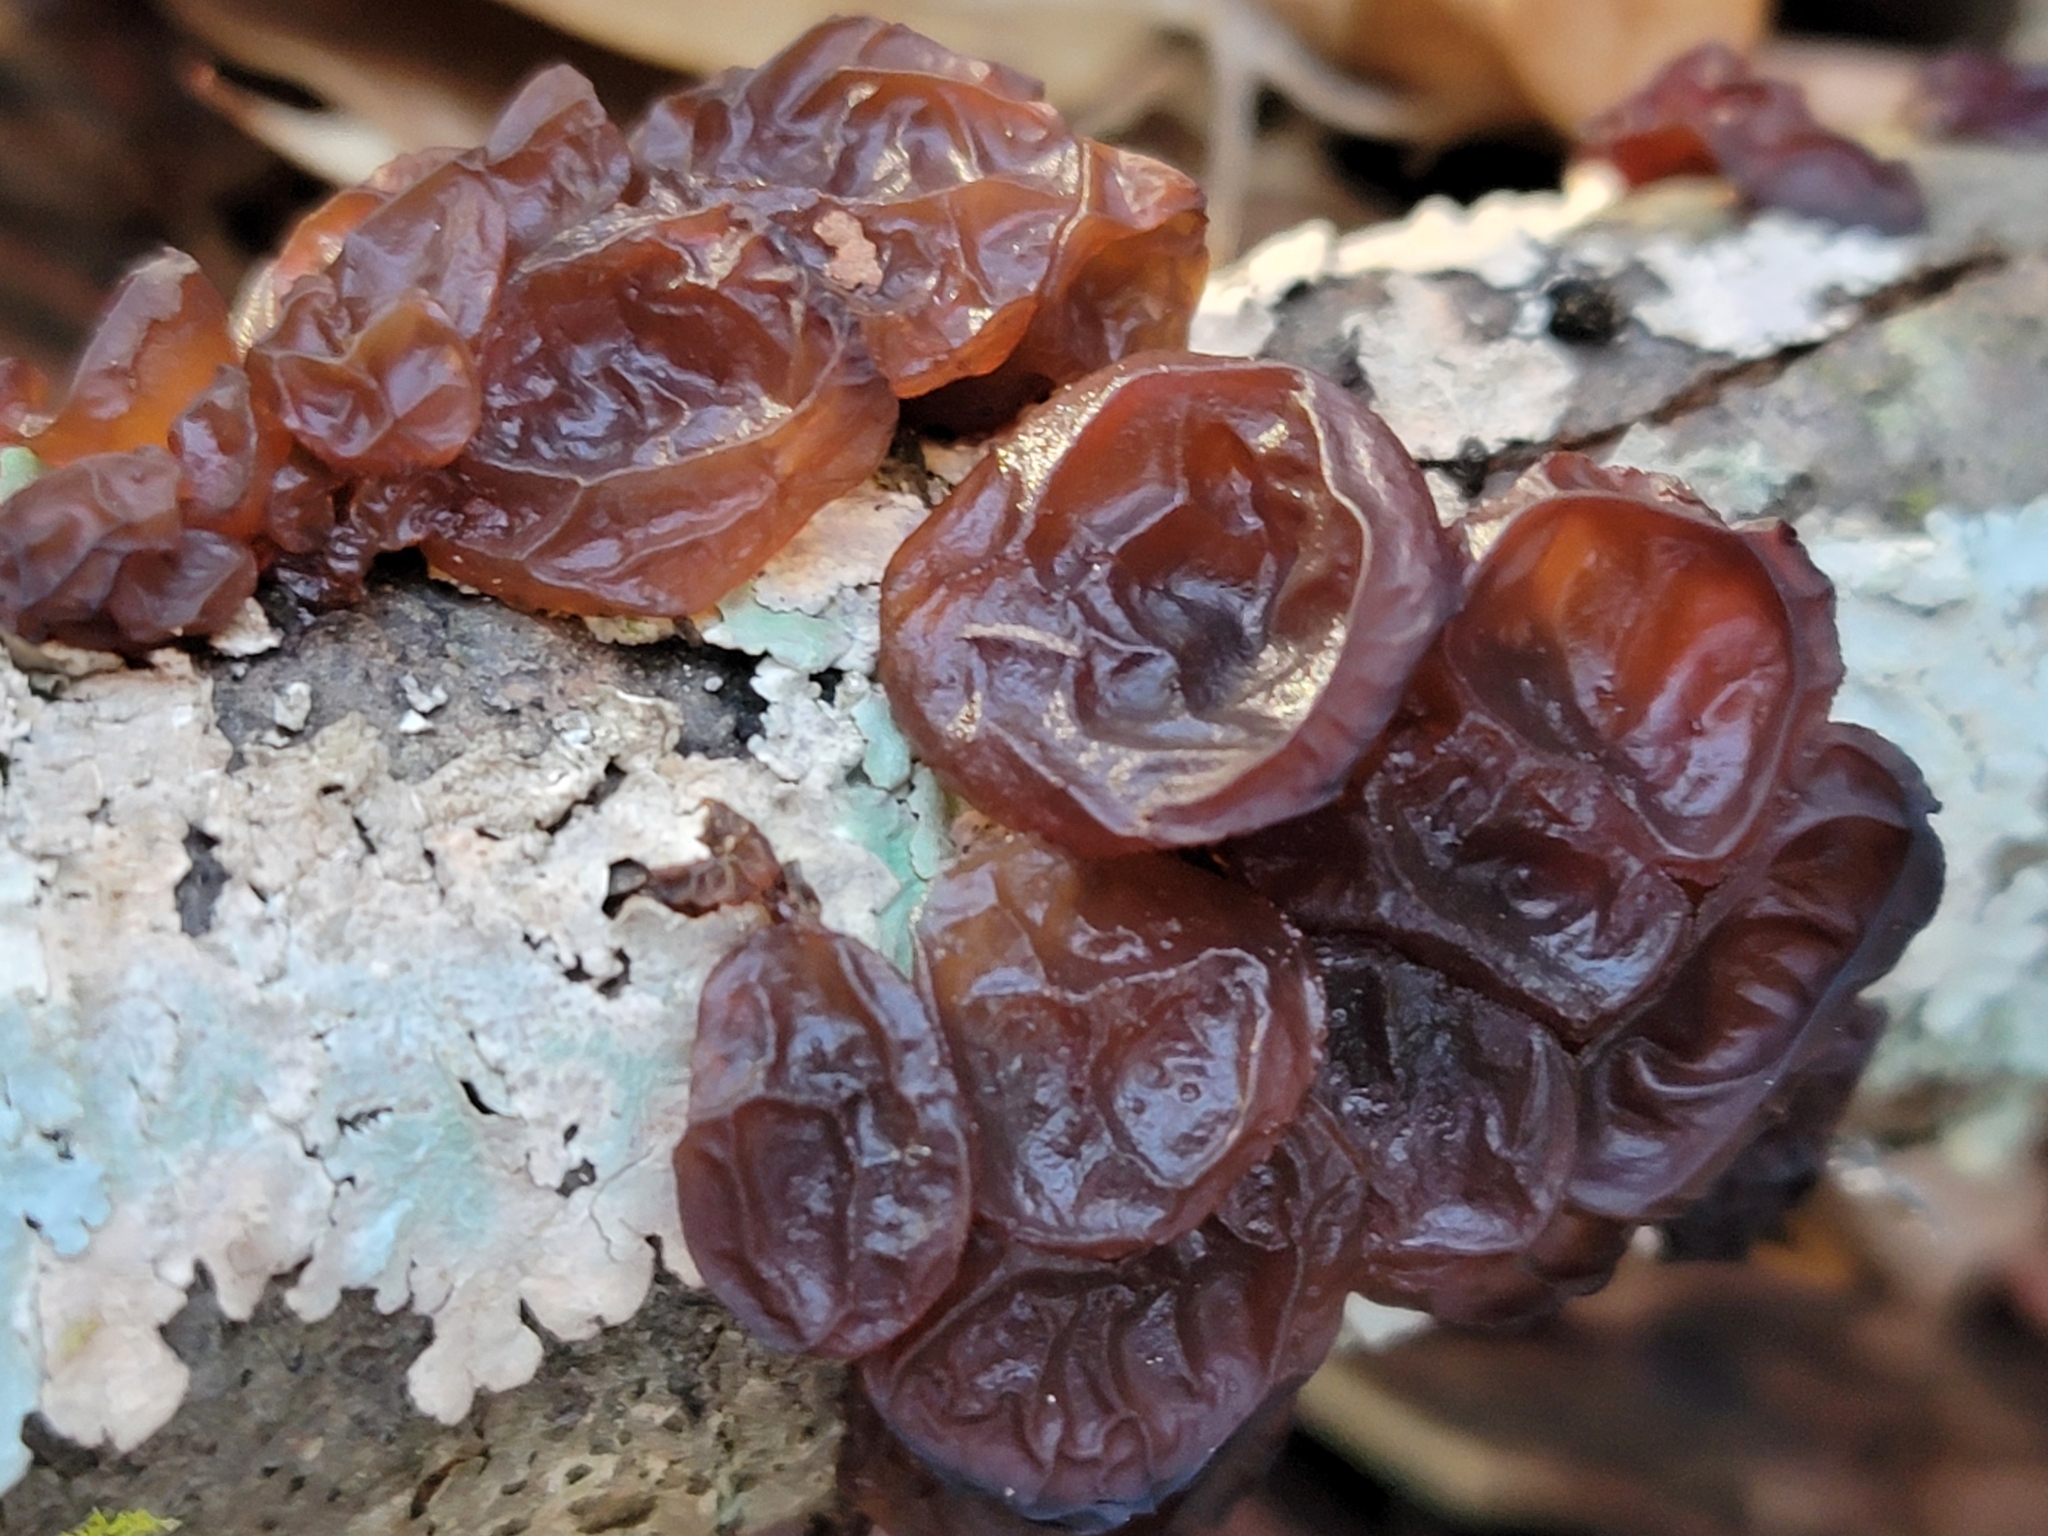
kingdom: Fungi
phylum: Basidiomycota
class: Agaricomycetes
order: Auriculariales
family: Auriculariaceae
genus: Exidia
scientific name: Exidia
